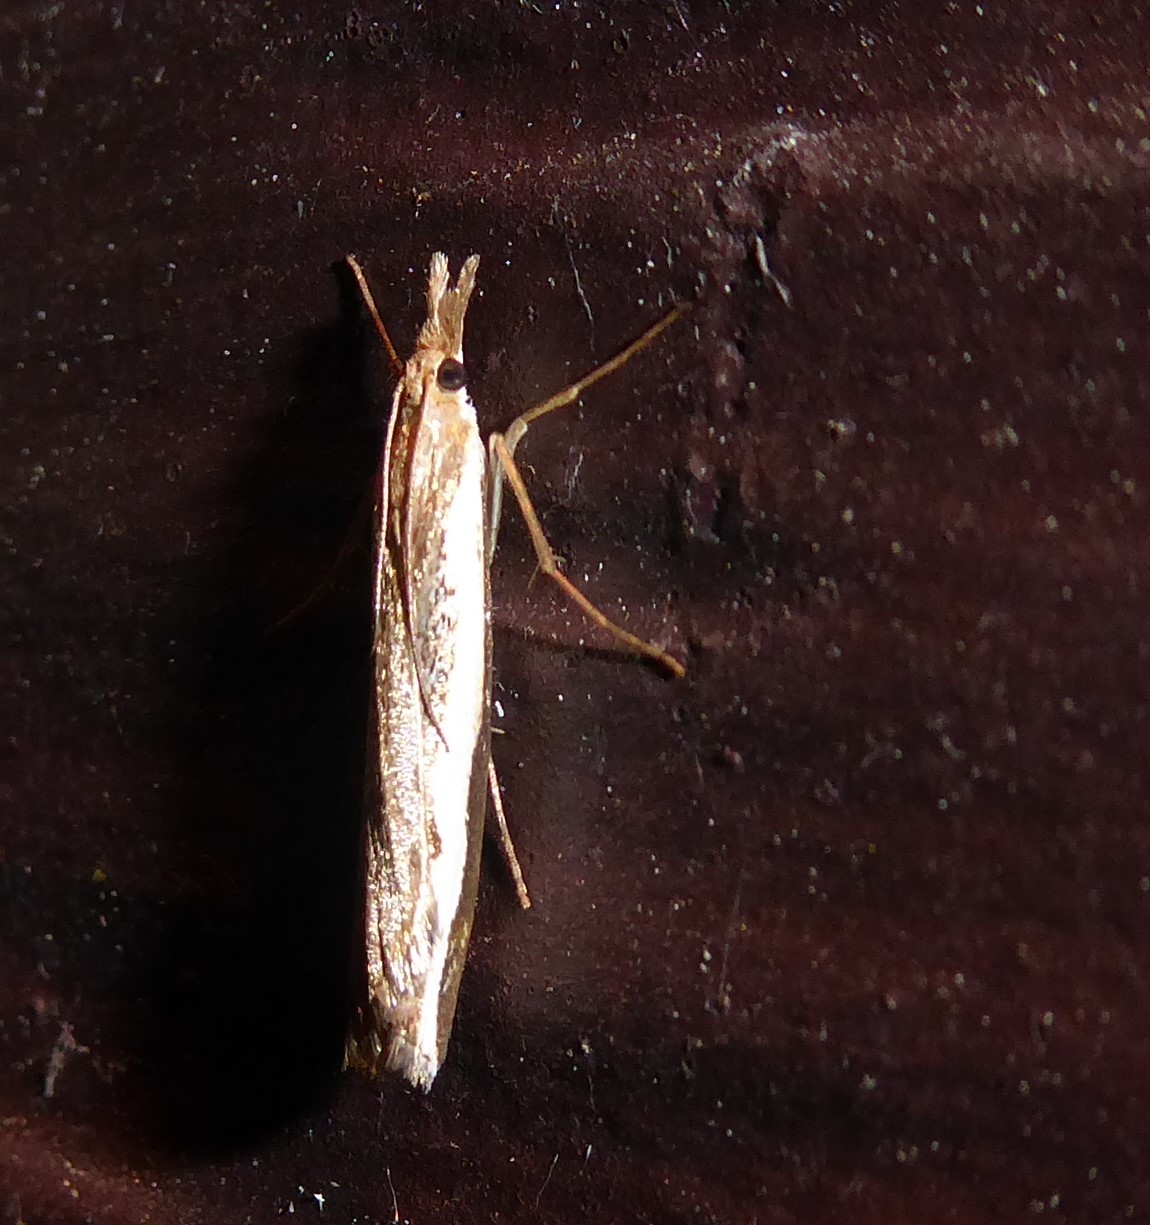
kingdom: Animalia
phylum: Arthropoda
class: Insecta
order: Lepidoptera
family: Crambidae
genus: Orocrambus
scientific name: Orocrambus flexuosellus
